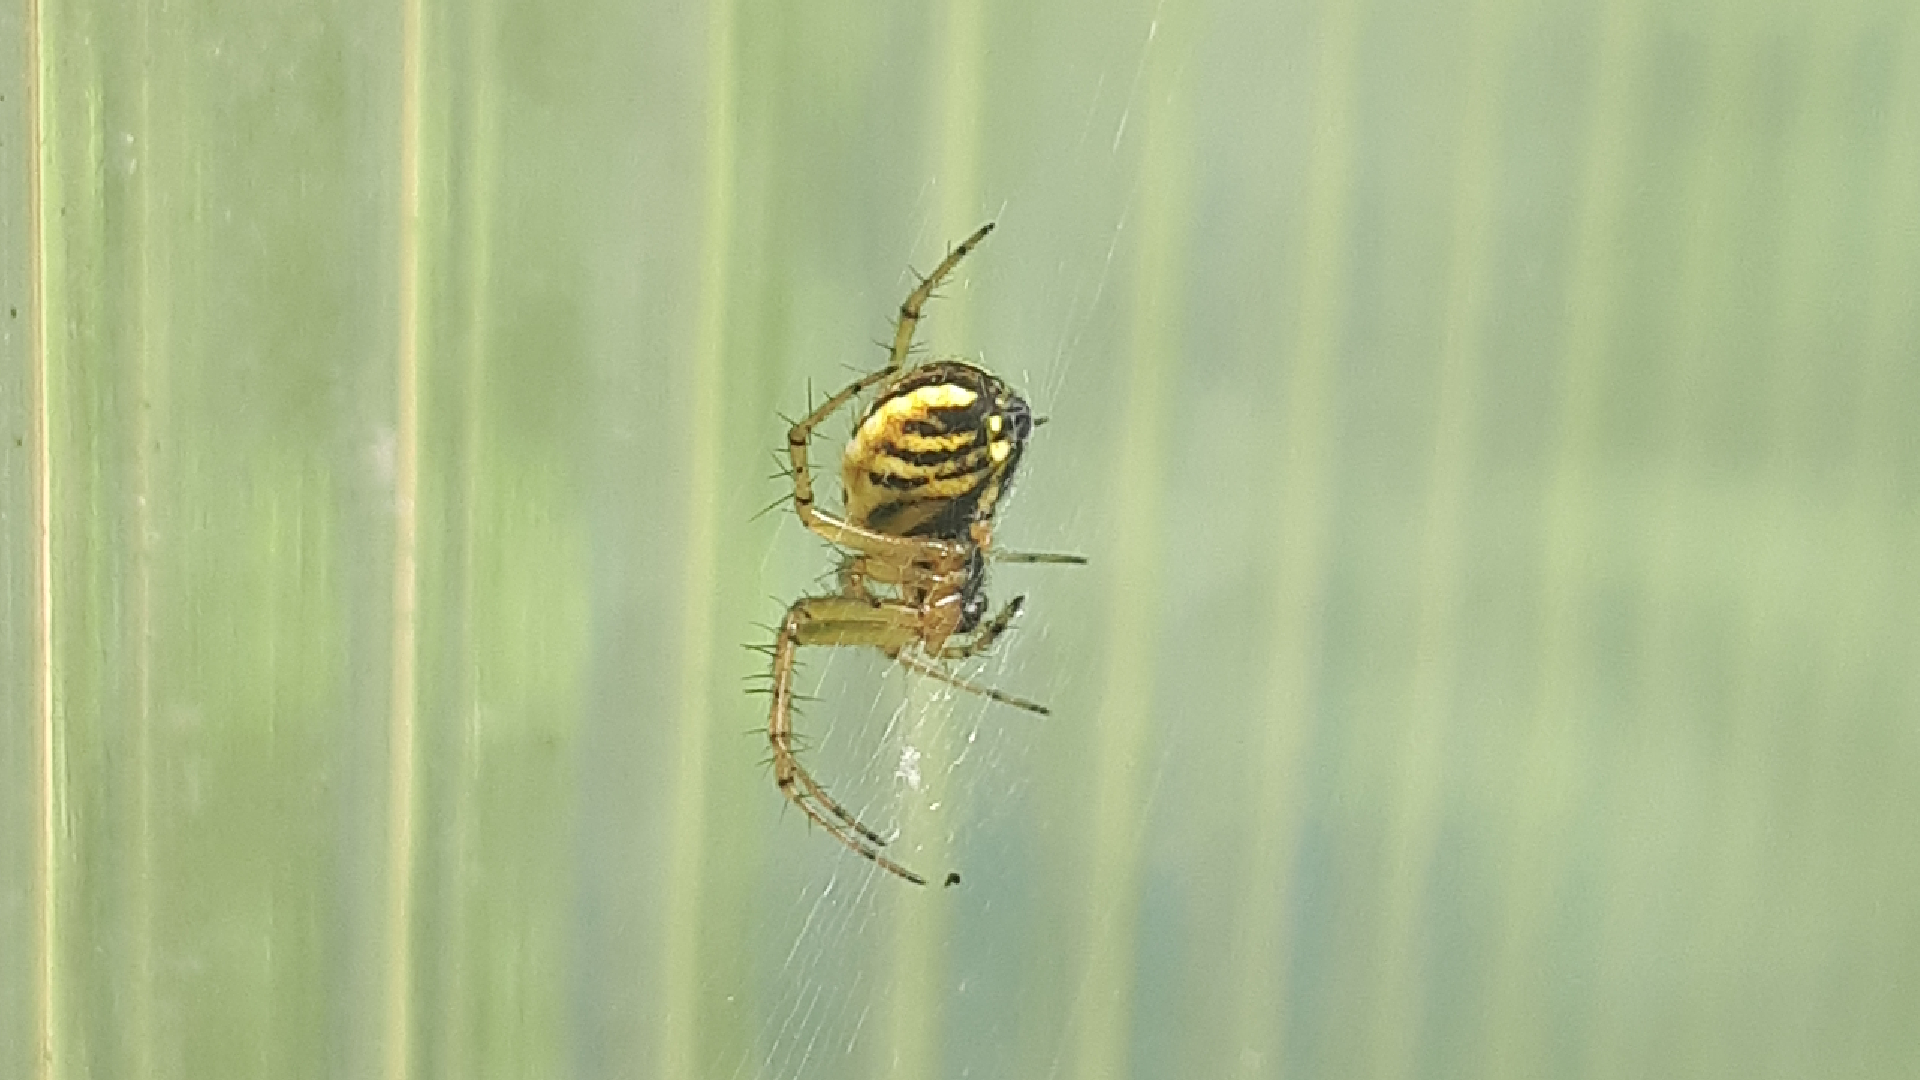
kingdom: Animalia
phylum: Arthropoda
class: Arachnida
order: Araneae
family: Araneidae
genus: Mangora
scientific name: Mangora acalypha
